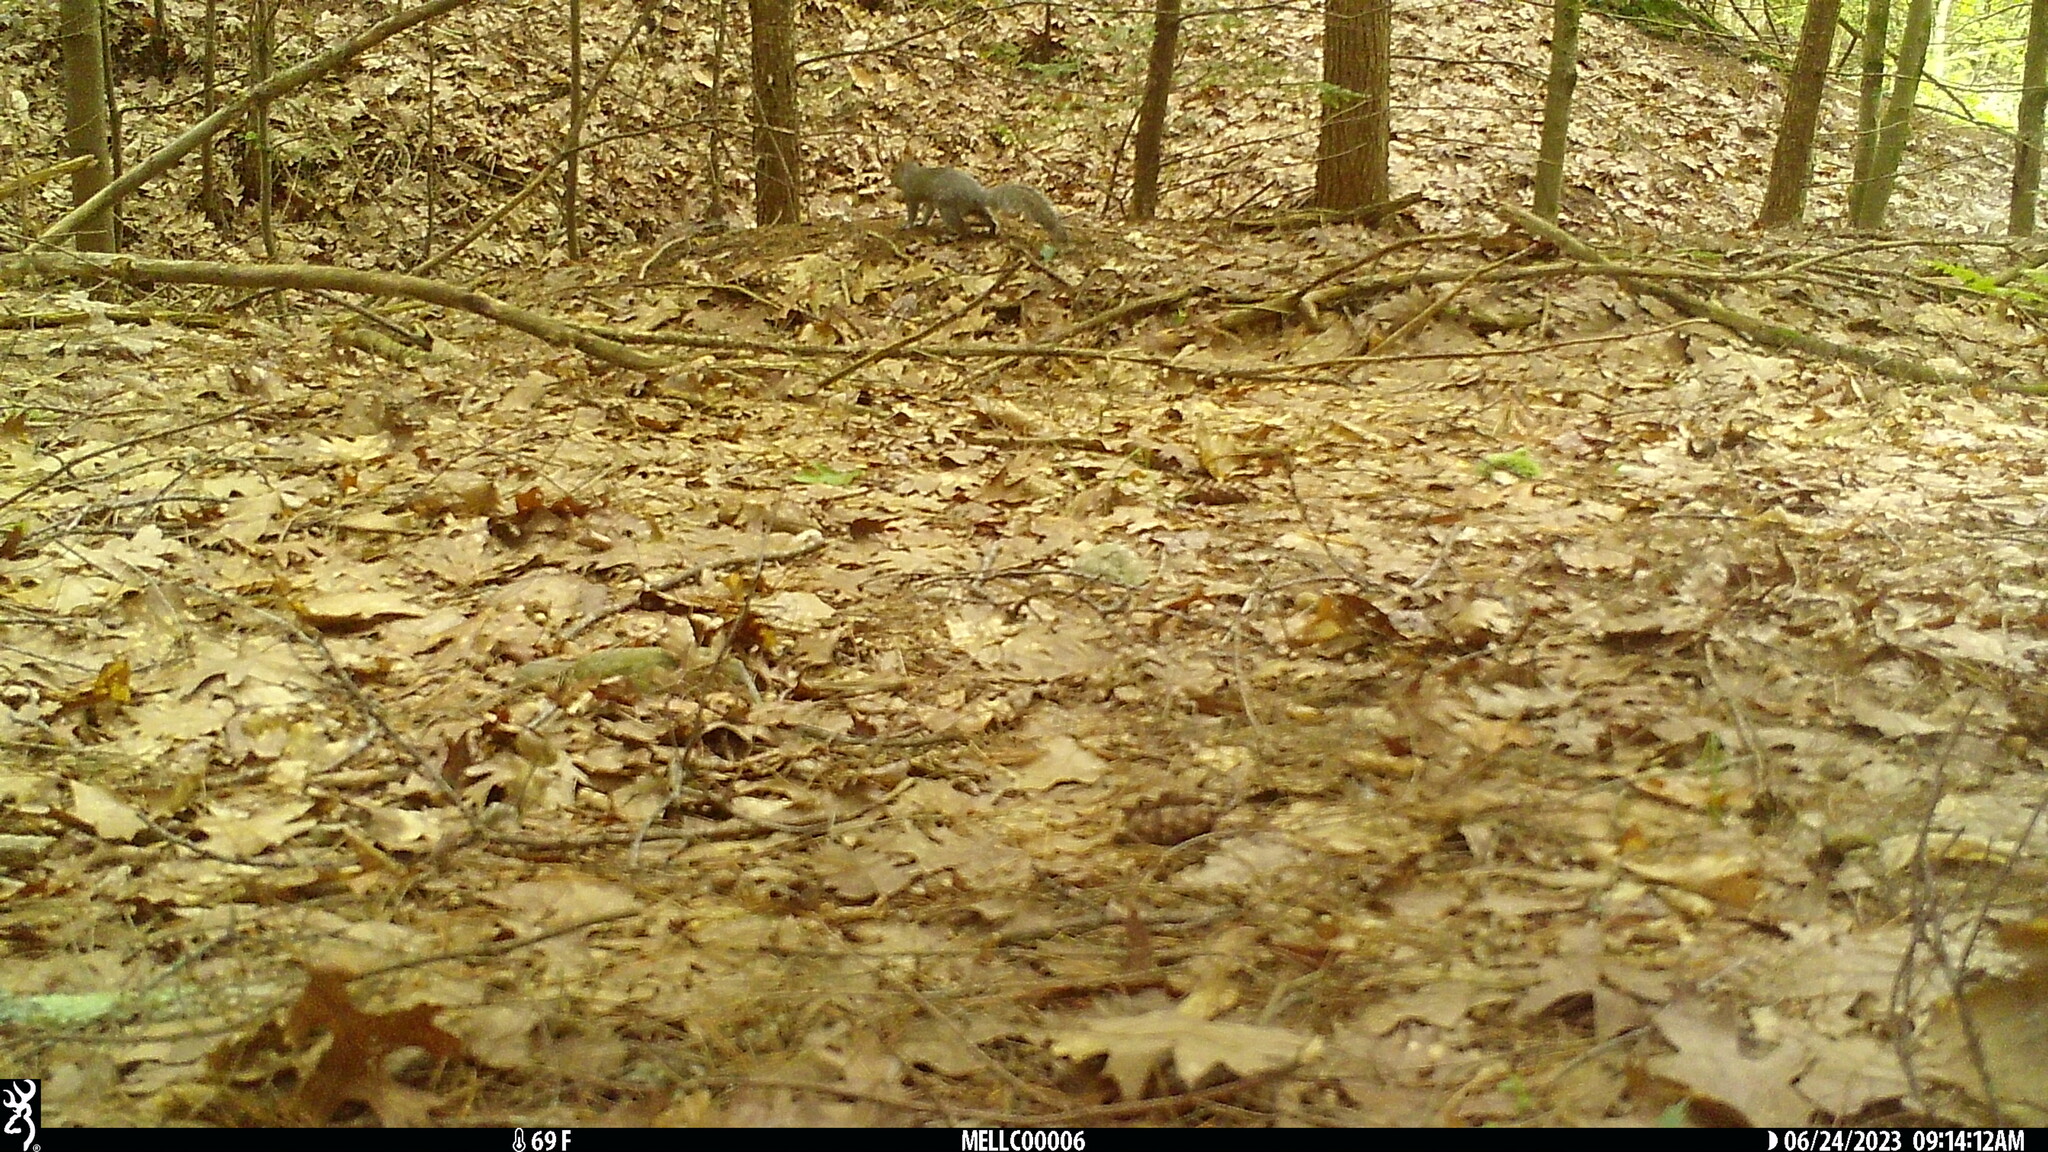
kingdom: Animalia
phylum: Chordata
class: Mammalia
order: Rodentia
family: Sciuridae
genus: Sciurus
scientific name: Sciurus carolinensis
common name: Eastern gray squirrel
